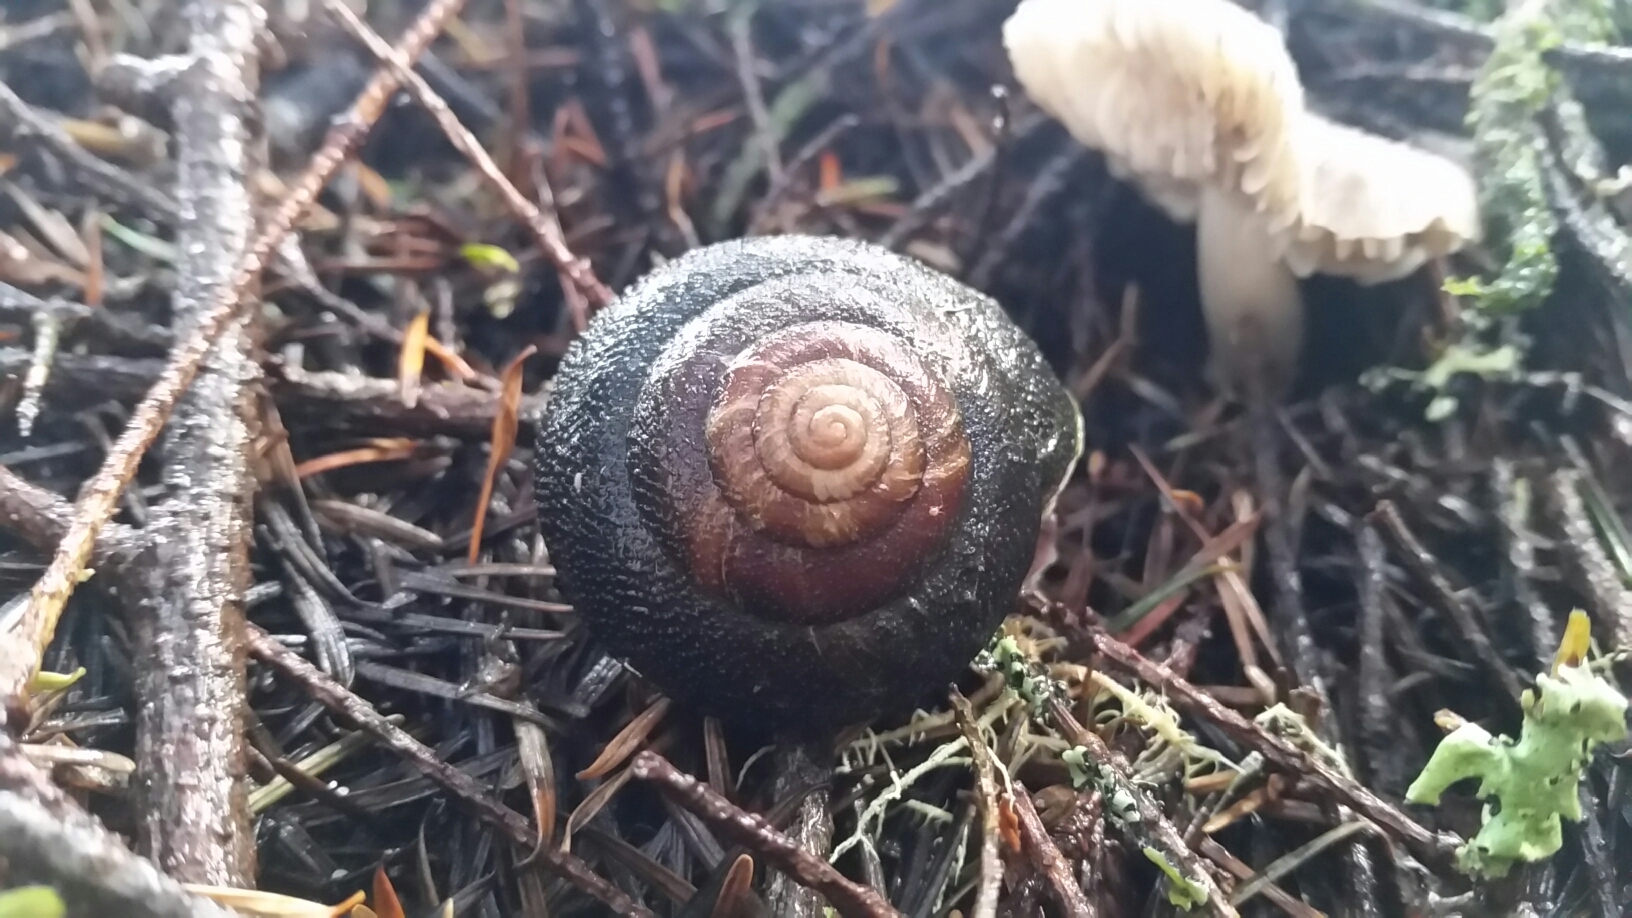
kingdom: Animalia
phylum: Mollusca
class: Gastropoda
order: Stylommatophora
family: Xanthonychidae
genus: Monadenia
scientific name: Monadenia infumata
